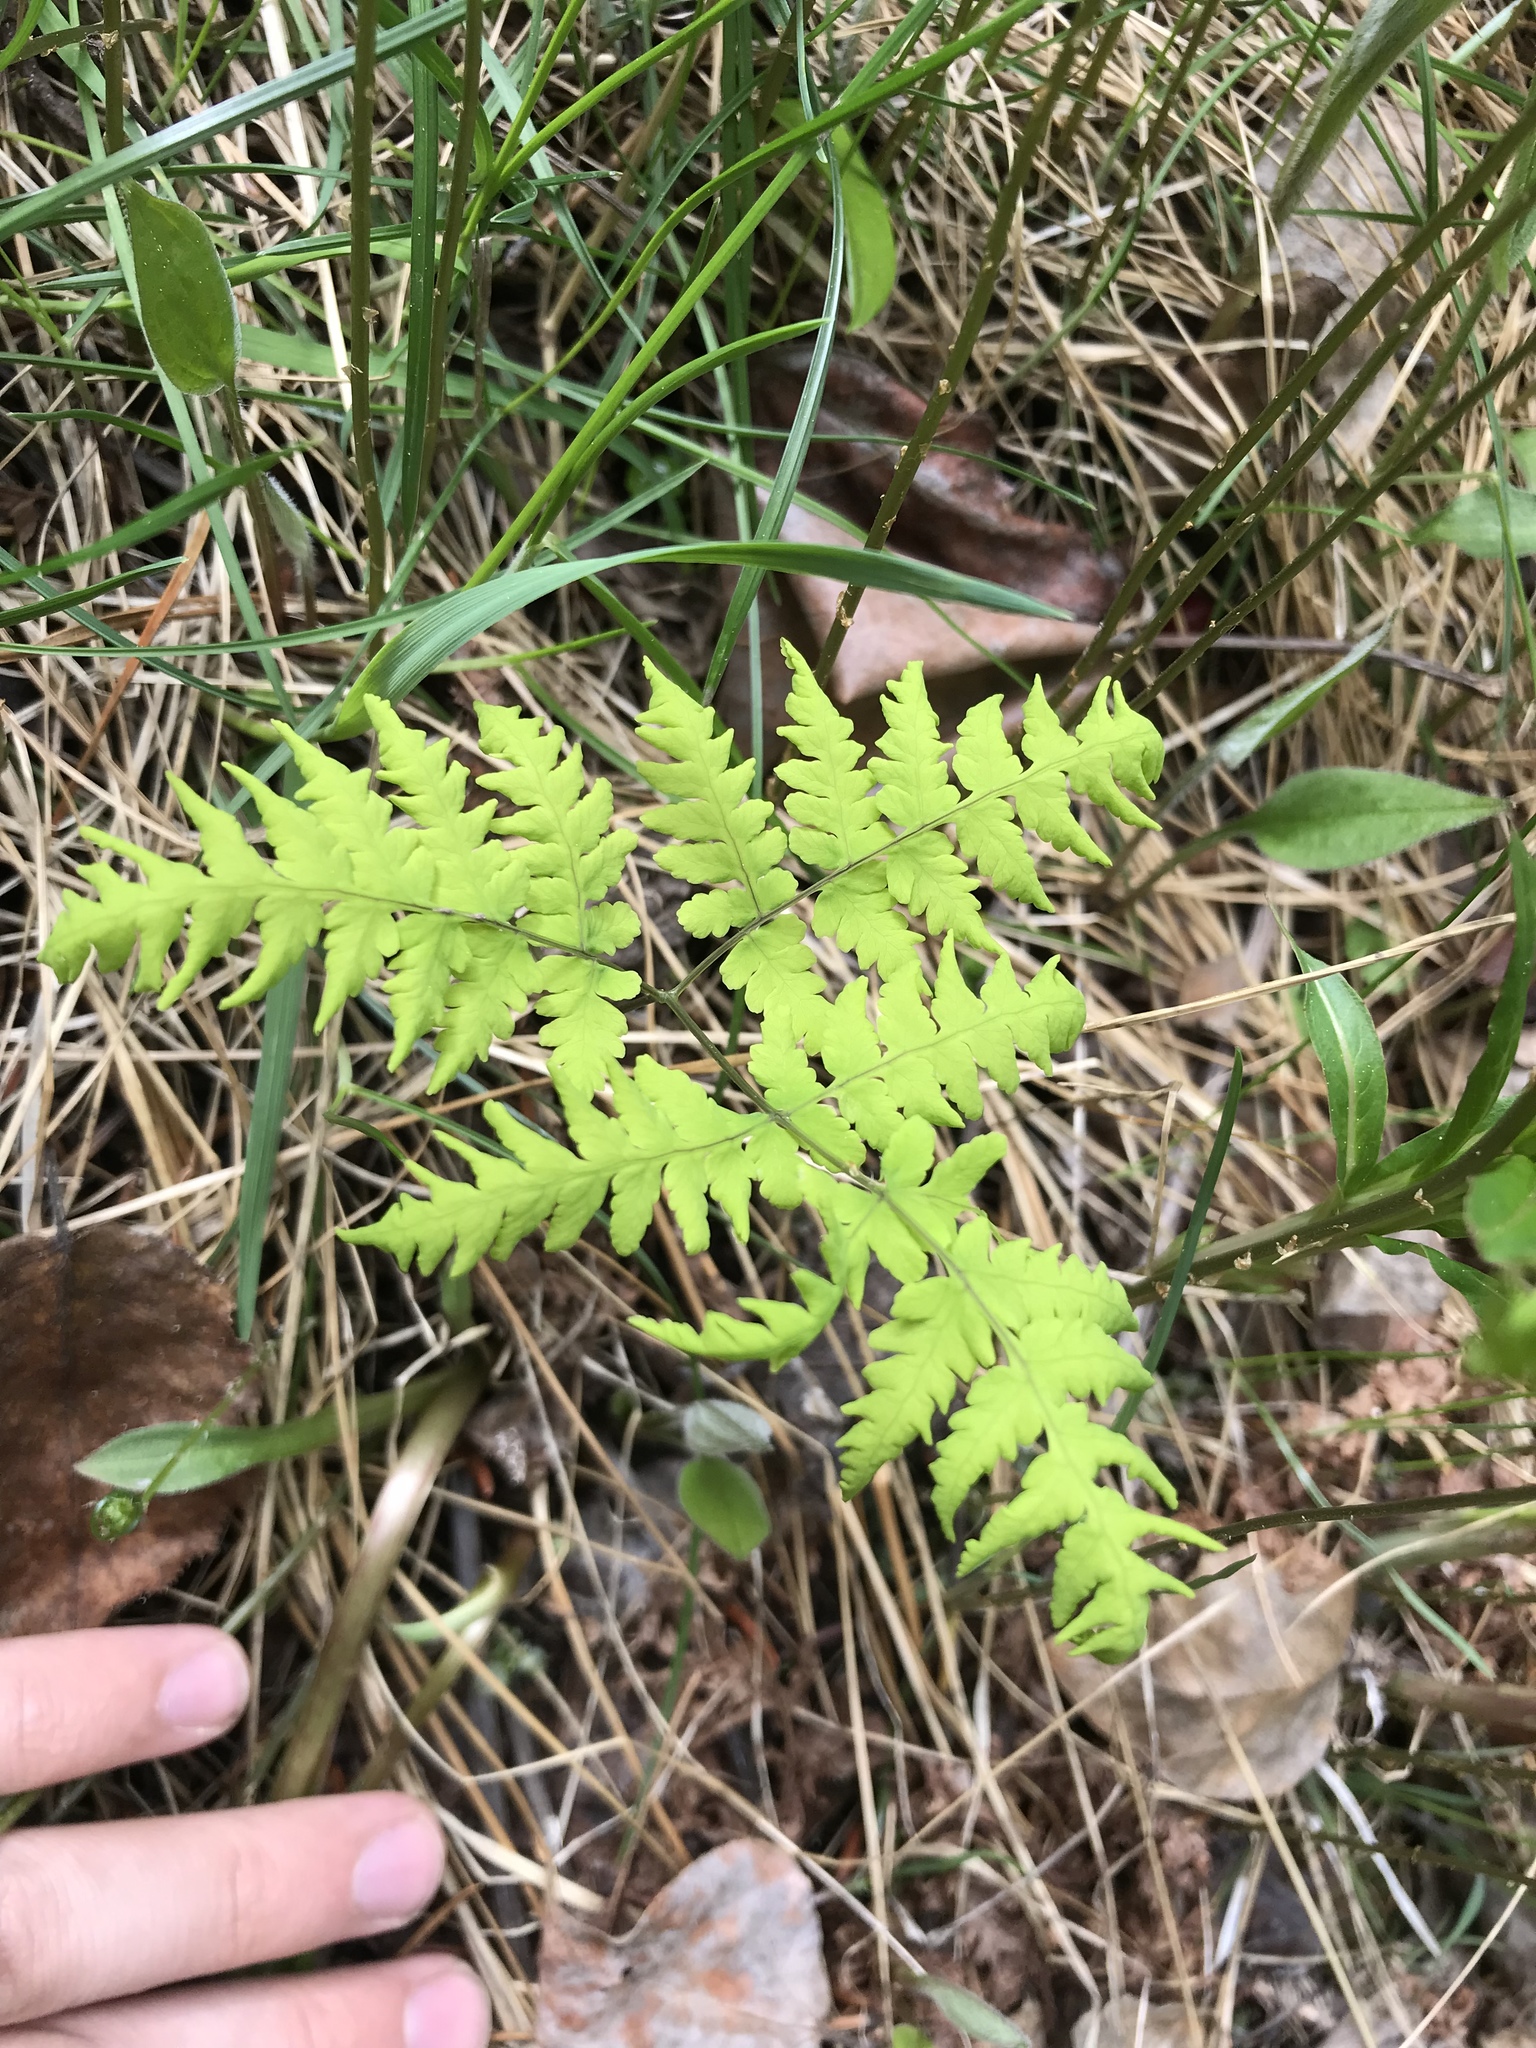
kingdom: Plantae
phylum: Tracheophyta
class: Polypodiopsida
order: Polypodiales
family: Cystopteridaceae
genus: Gymnocarpium
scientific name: Gymnocarpium dryopteris
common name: Oak fern
